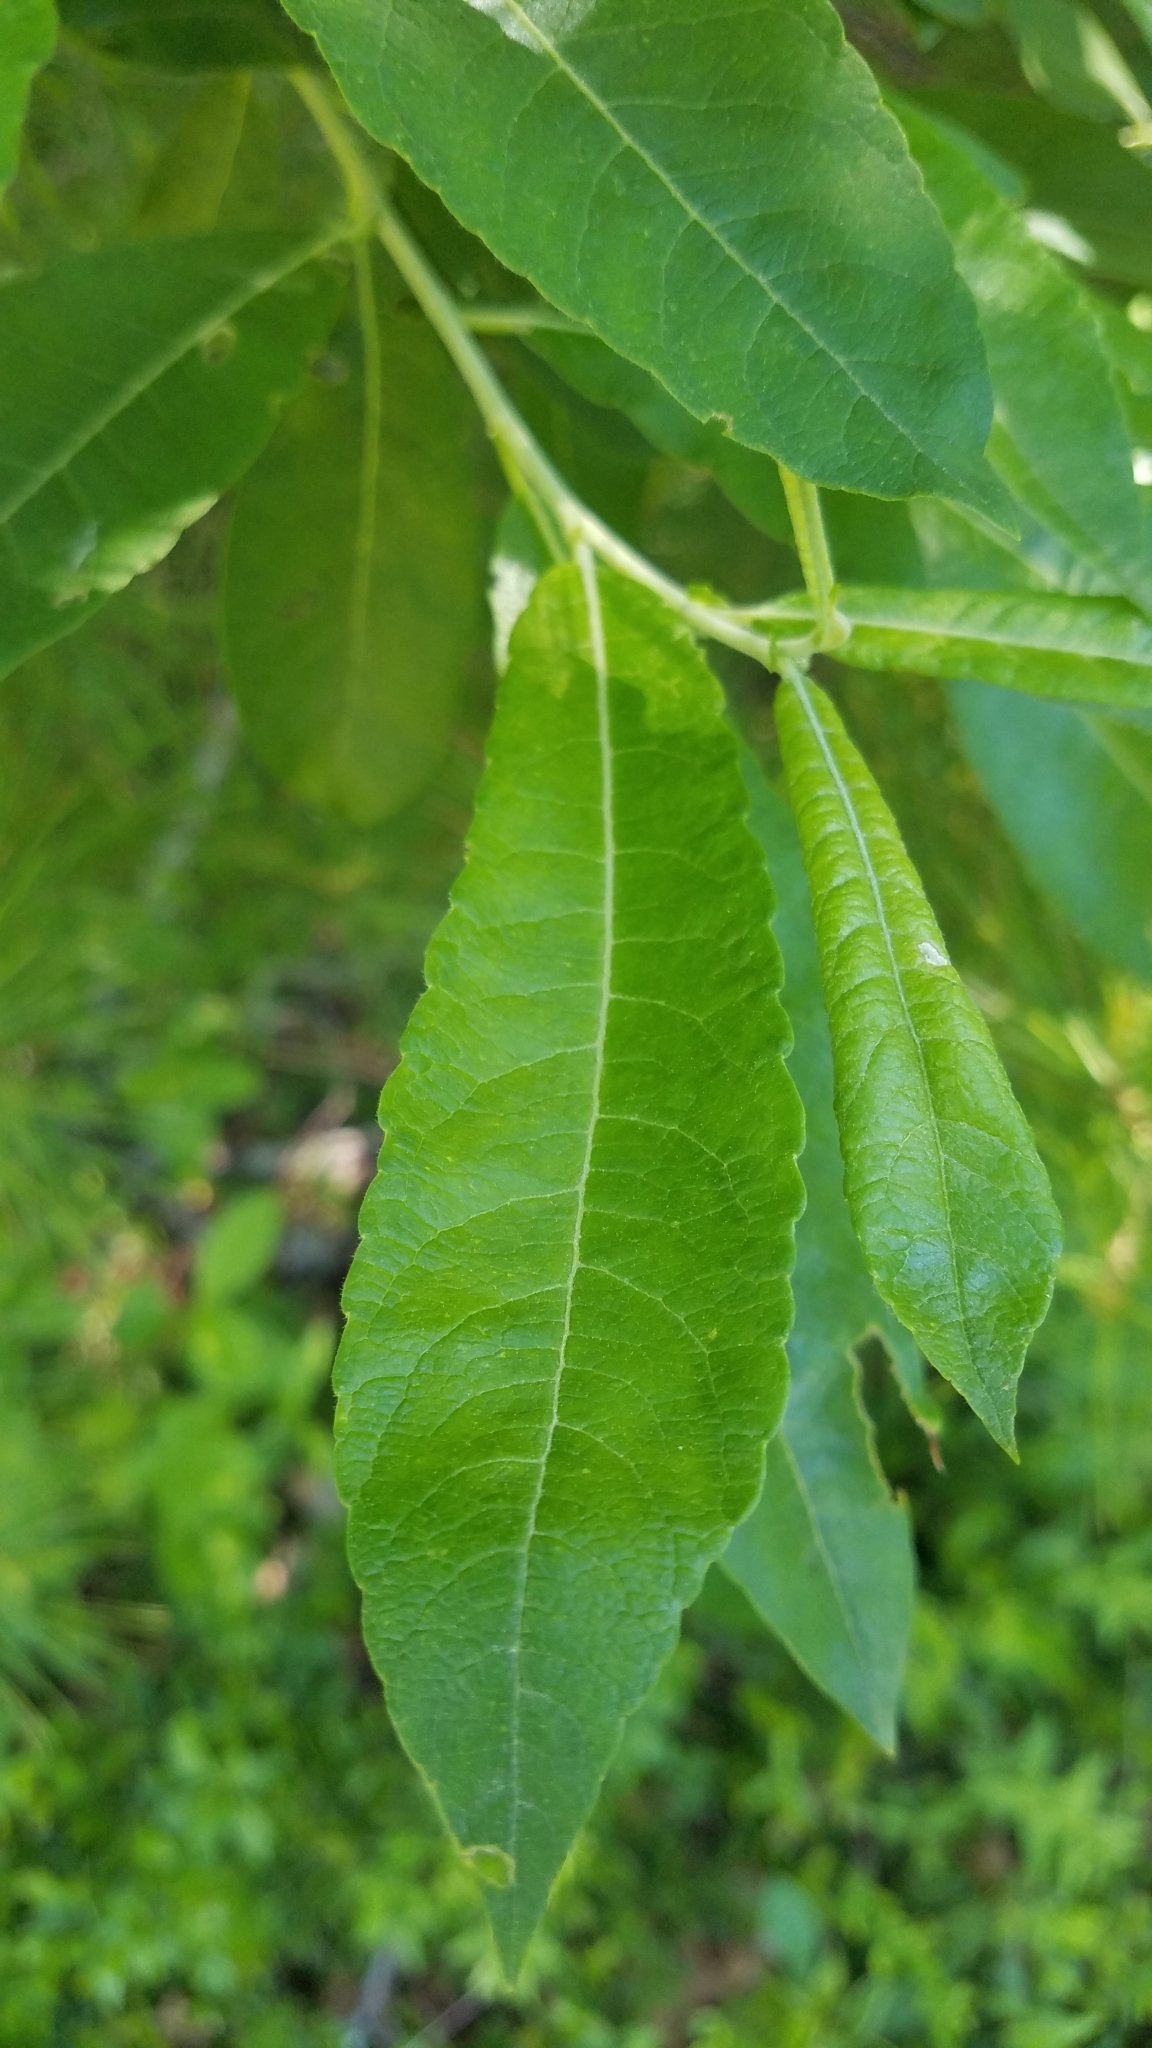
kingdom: Plantae
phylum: Tracheophyta
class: Magnoliopsida
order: Malpighiales
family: Salicaceae
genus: Salix
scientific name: Salix humilis
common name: Prairie willow
